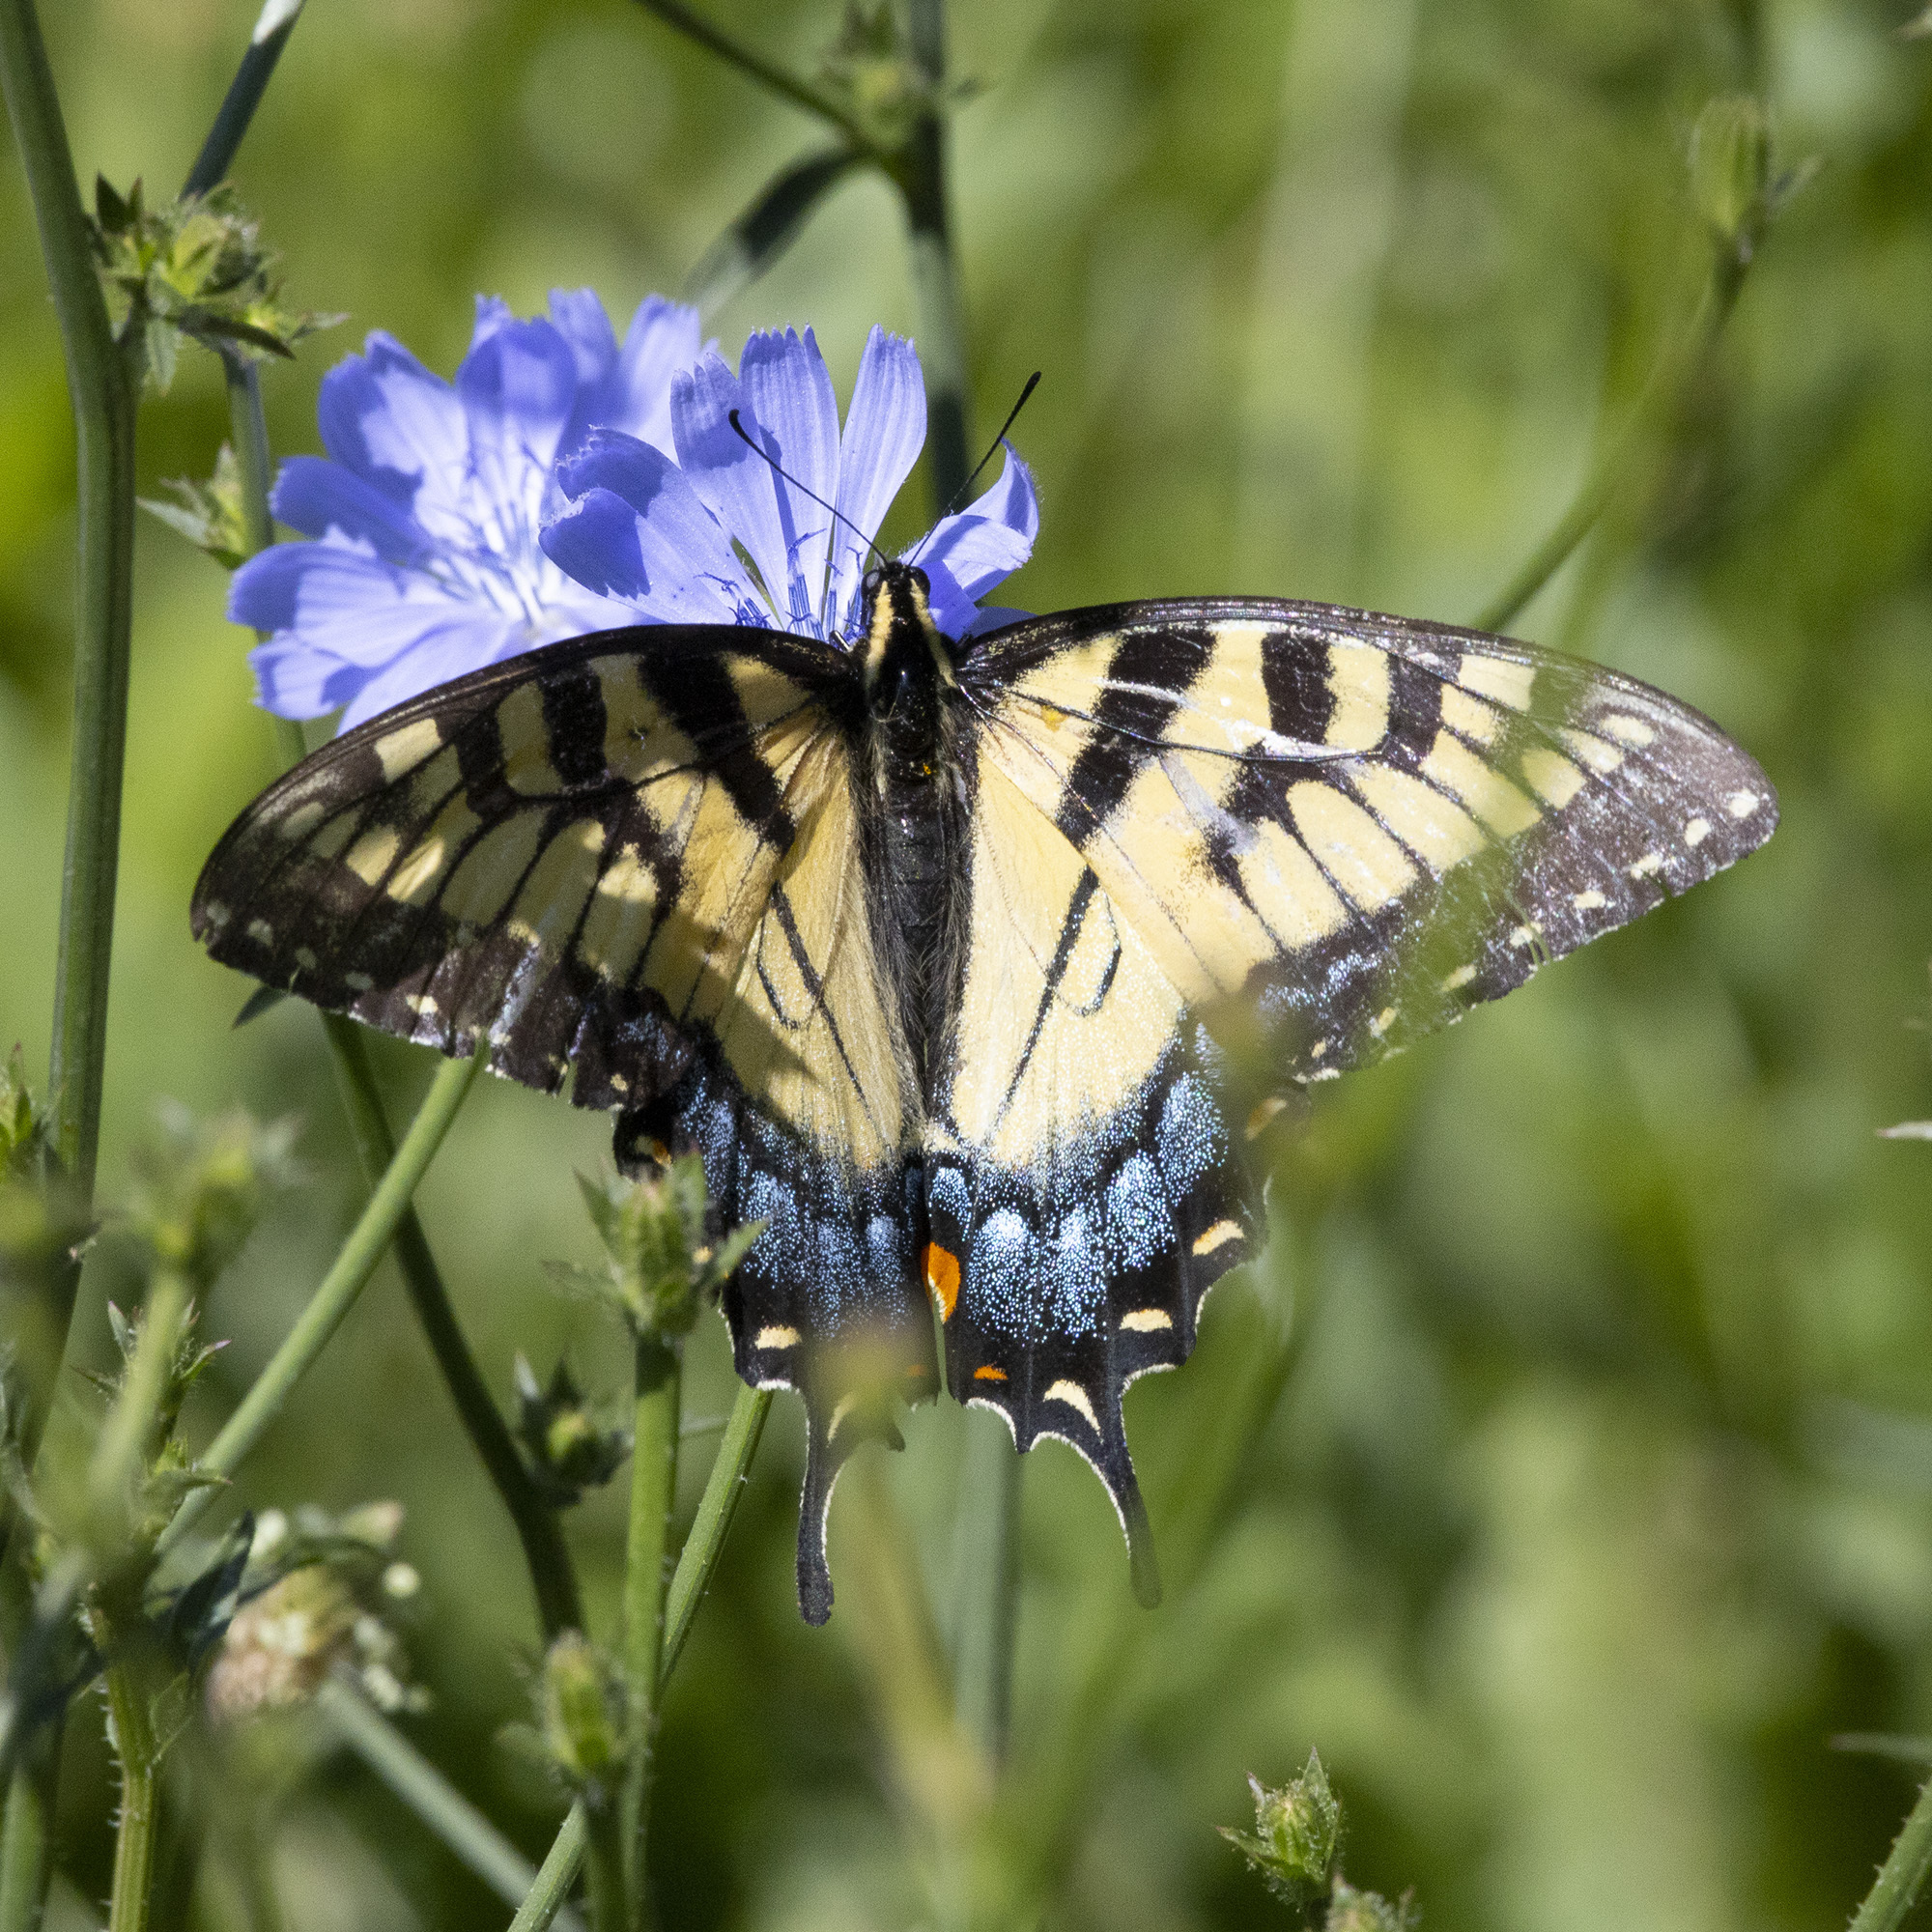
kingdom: Animalia
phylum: Arthropoda
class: Insecta
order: Lepidoptera
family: Papilionidae
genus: Papilio
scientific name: Papilio glaucus
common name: Tiger swallowtail
